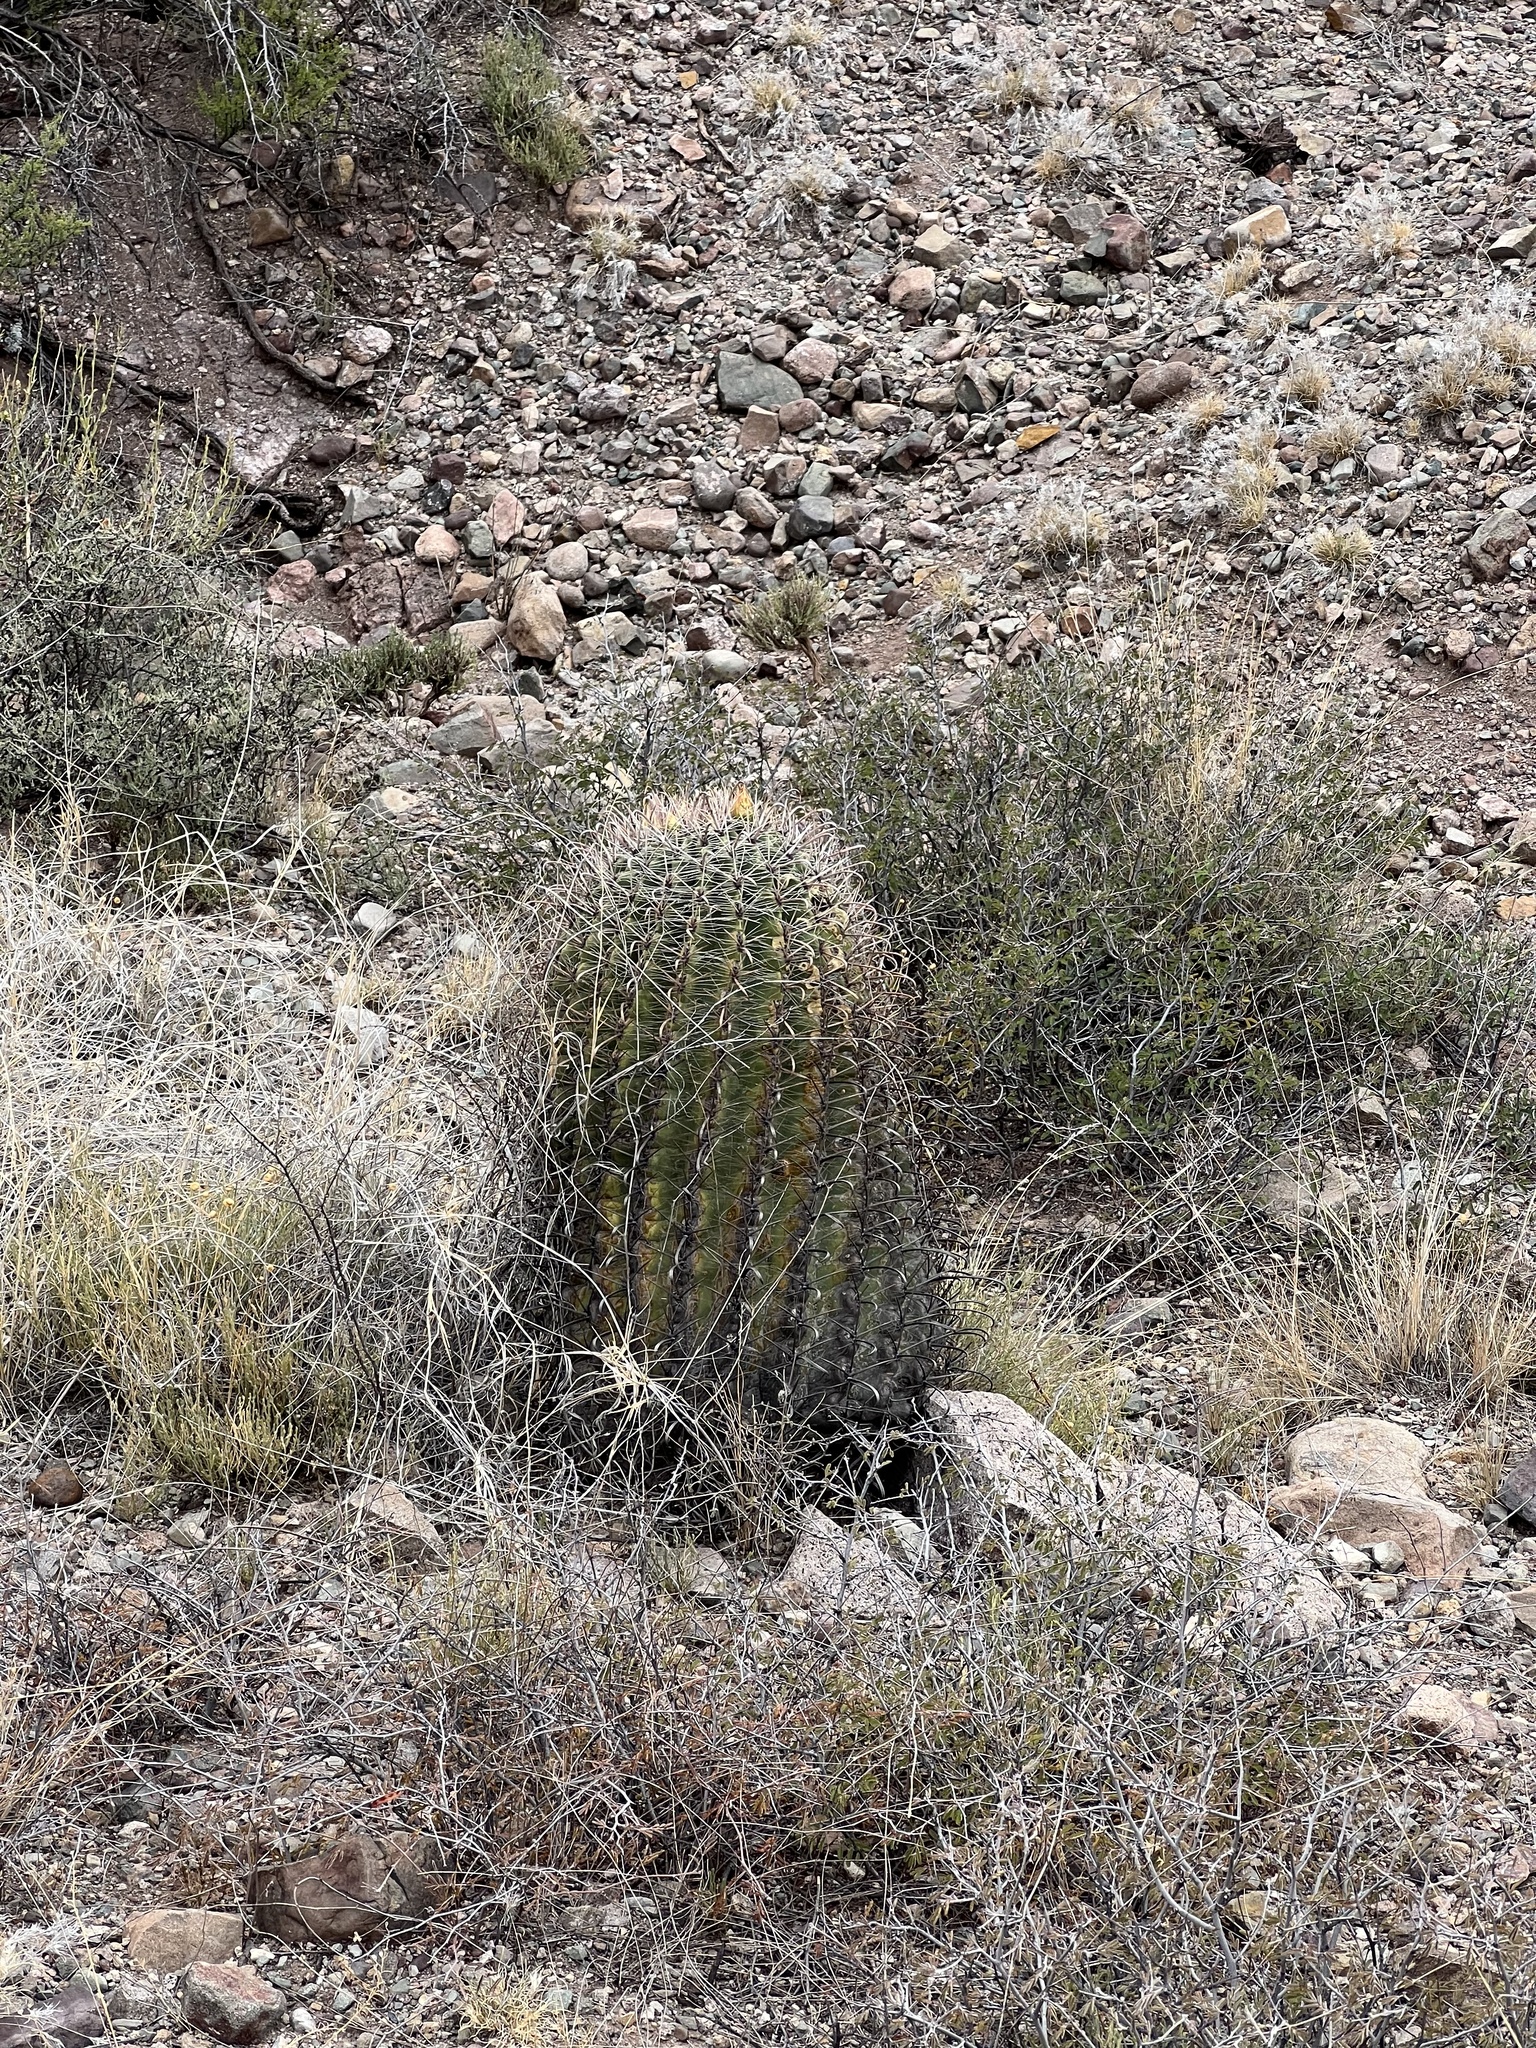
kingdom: Plantae
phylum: Tracheophyta
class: Magnoliopsida
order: Caryophyllales
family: Cactaceae
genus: Ferocactus
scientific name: Ferocactus wislizeni
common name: Candy barrel cactus
